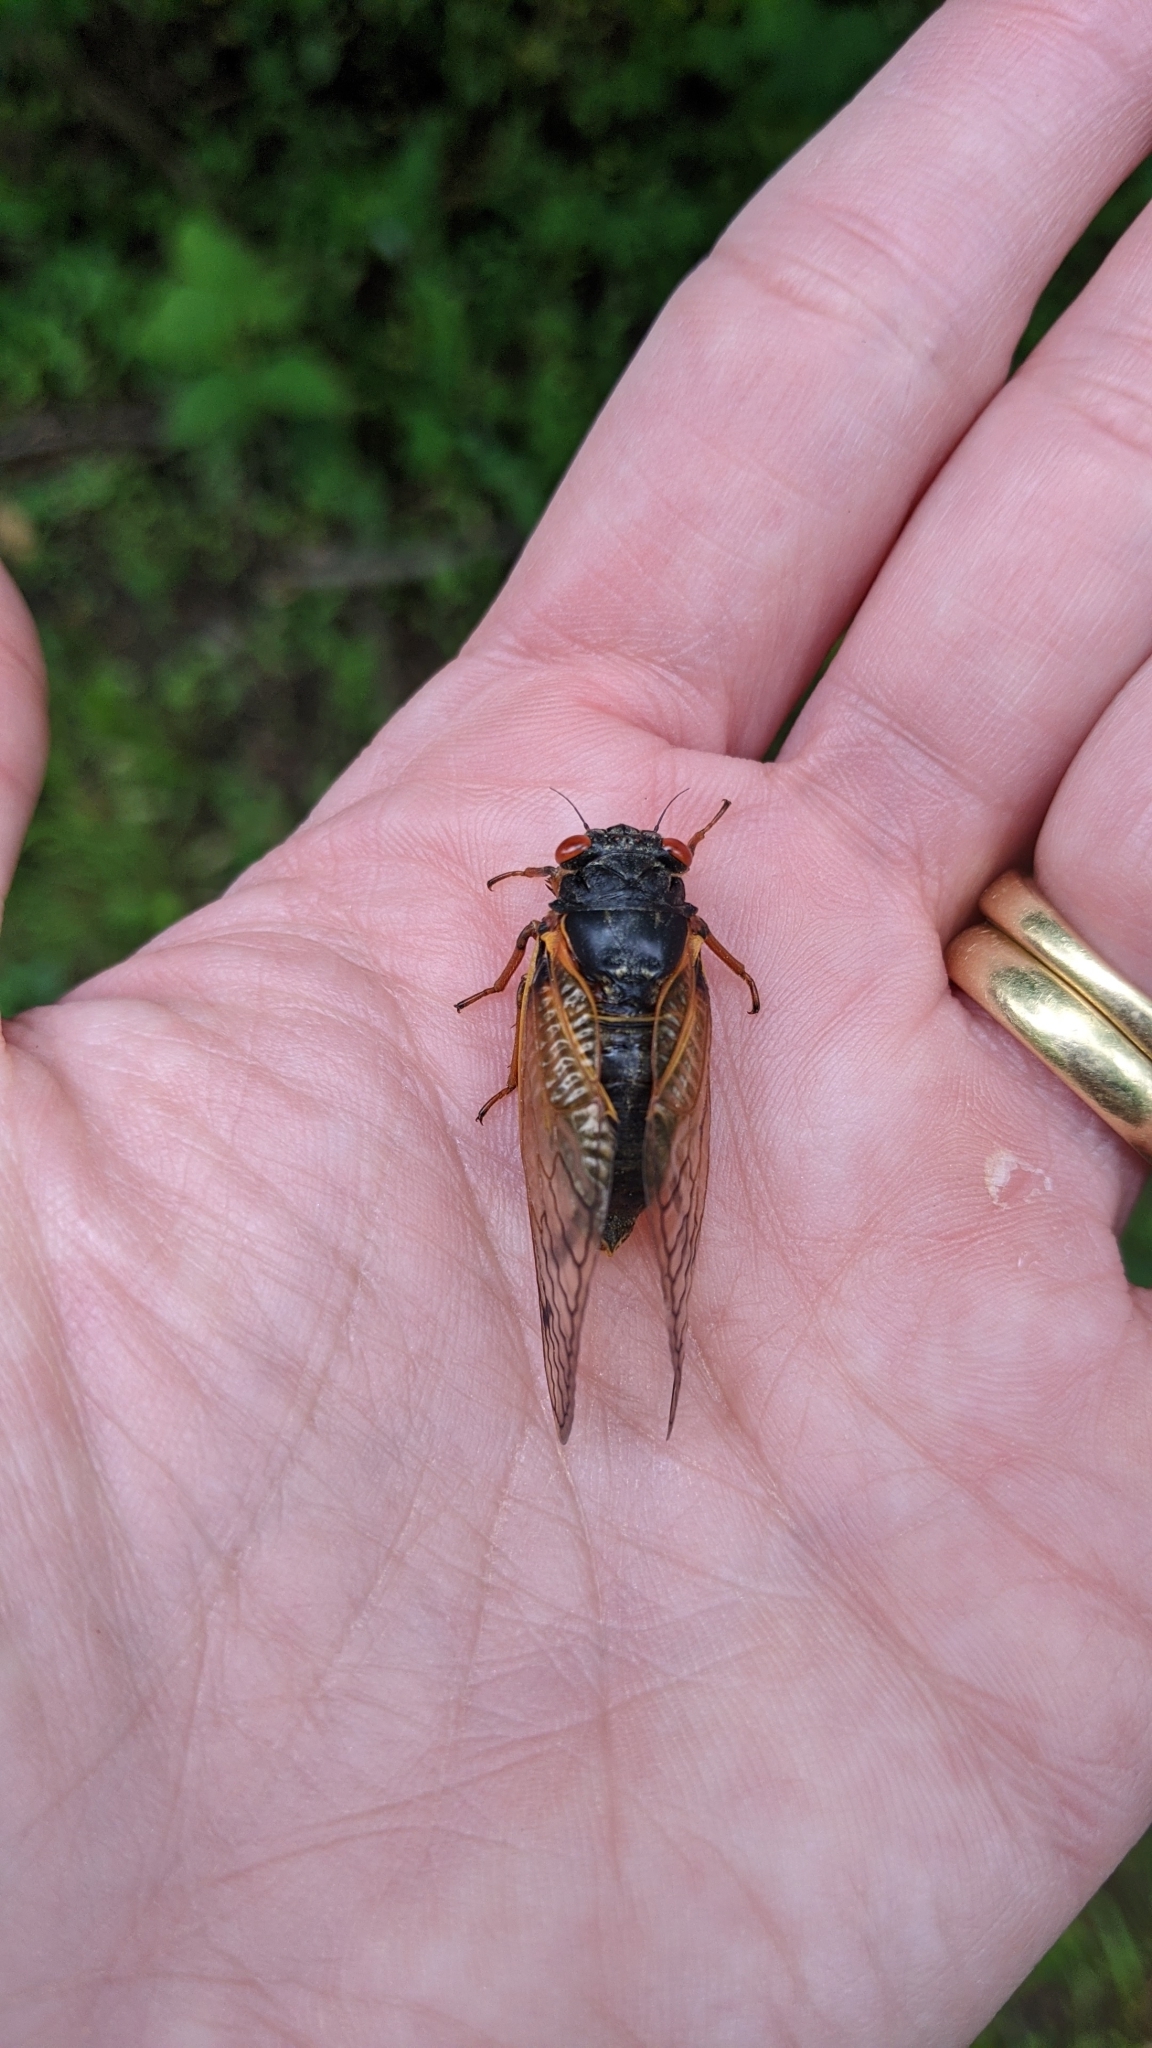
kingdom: Animalia
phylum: Arthropoda
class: Insecta
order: Hemiptera
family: Cicadidae
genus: Magicicada
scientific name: Magicicada
